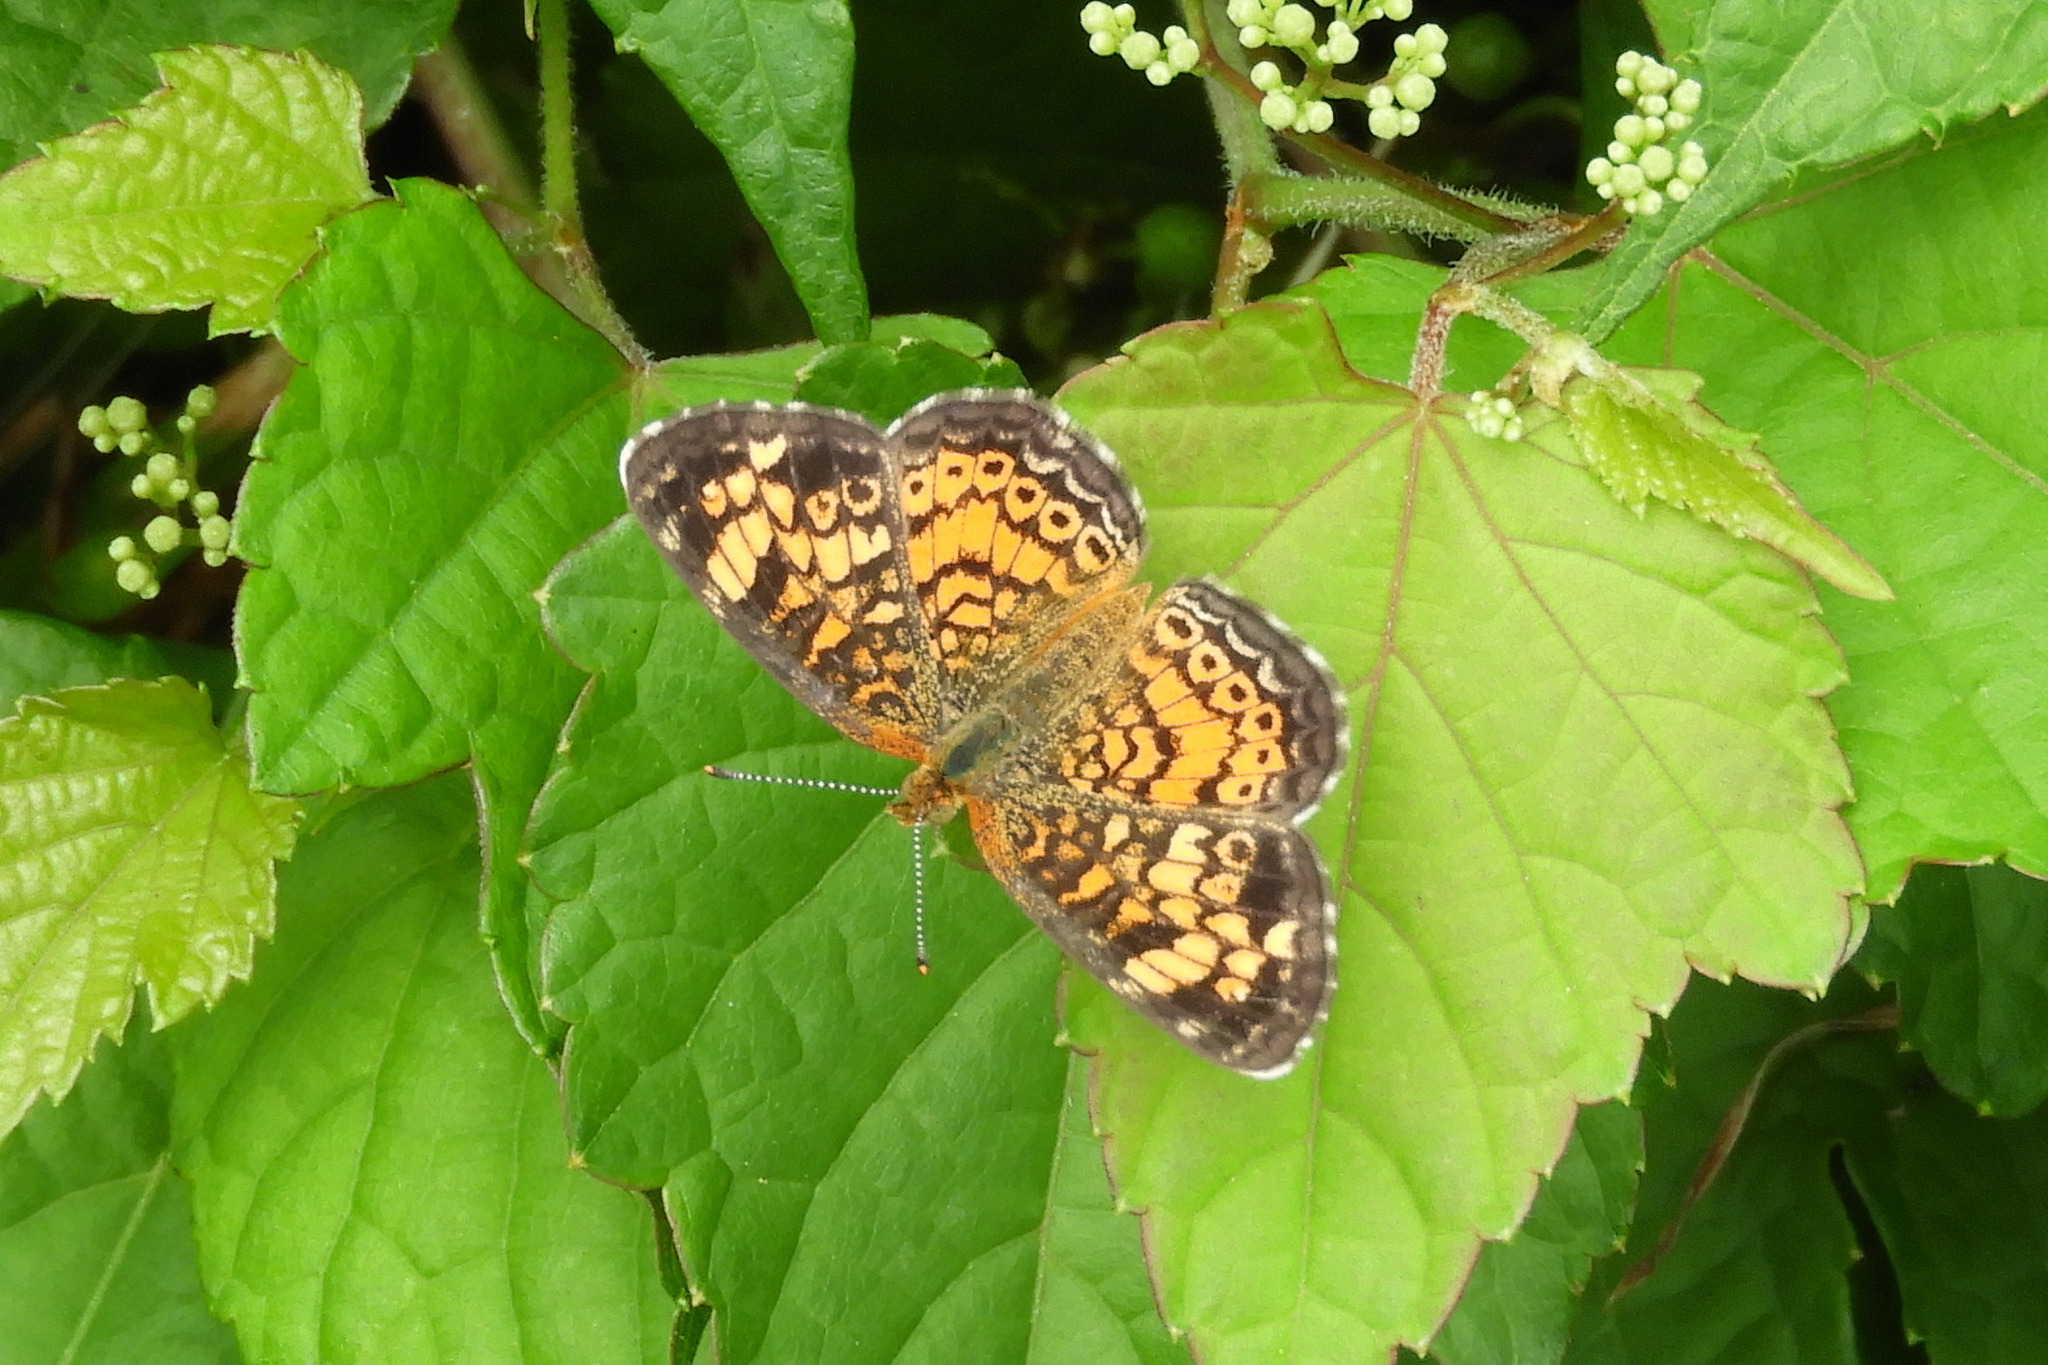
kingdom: Animalia
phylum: Arthropoda
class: Insecta
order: Lepidoptera
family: Nymphalidae
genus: Phyciodes
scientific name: Phyciodes tharos
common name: Pearl crescent
